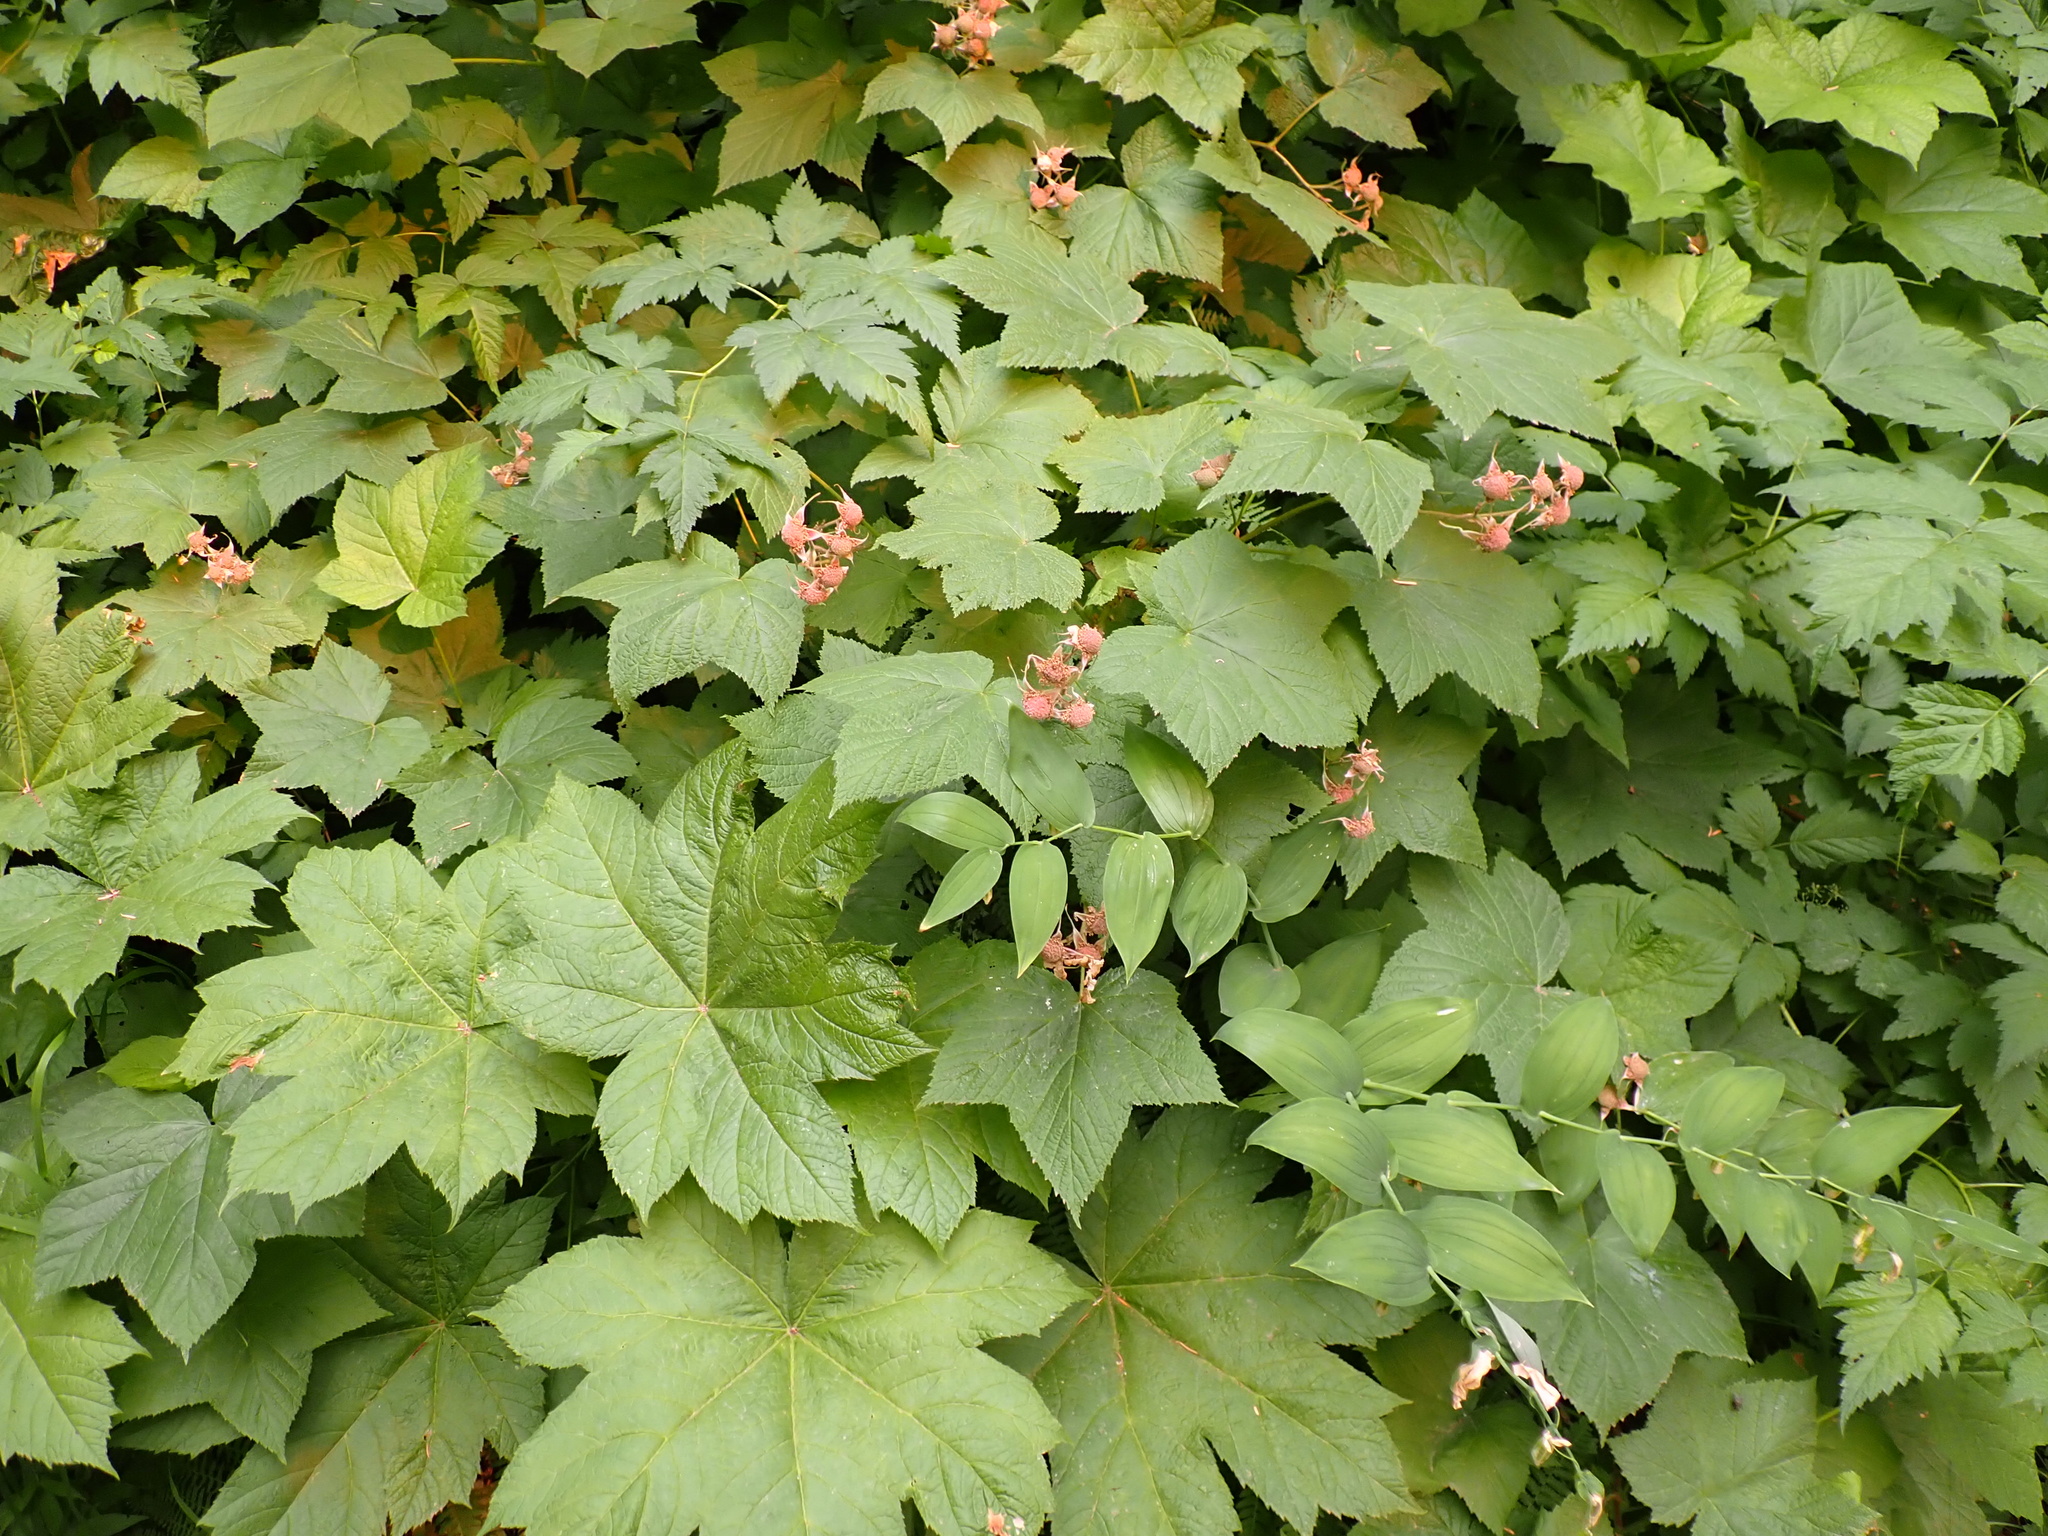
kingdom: Plantae
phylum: Tracheophyta
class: Magnoliopsida
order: Rosales
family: Rosaceae
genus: Rubus
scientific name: Rubus parviflorus
